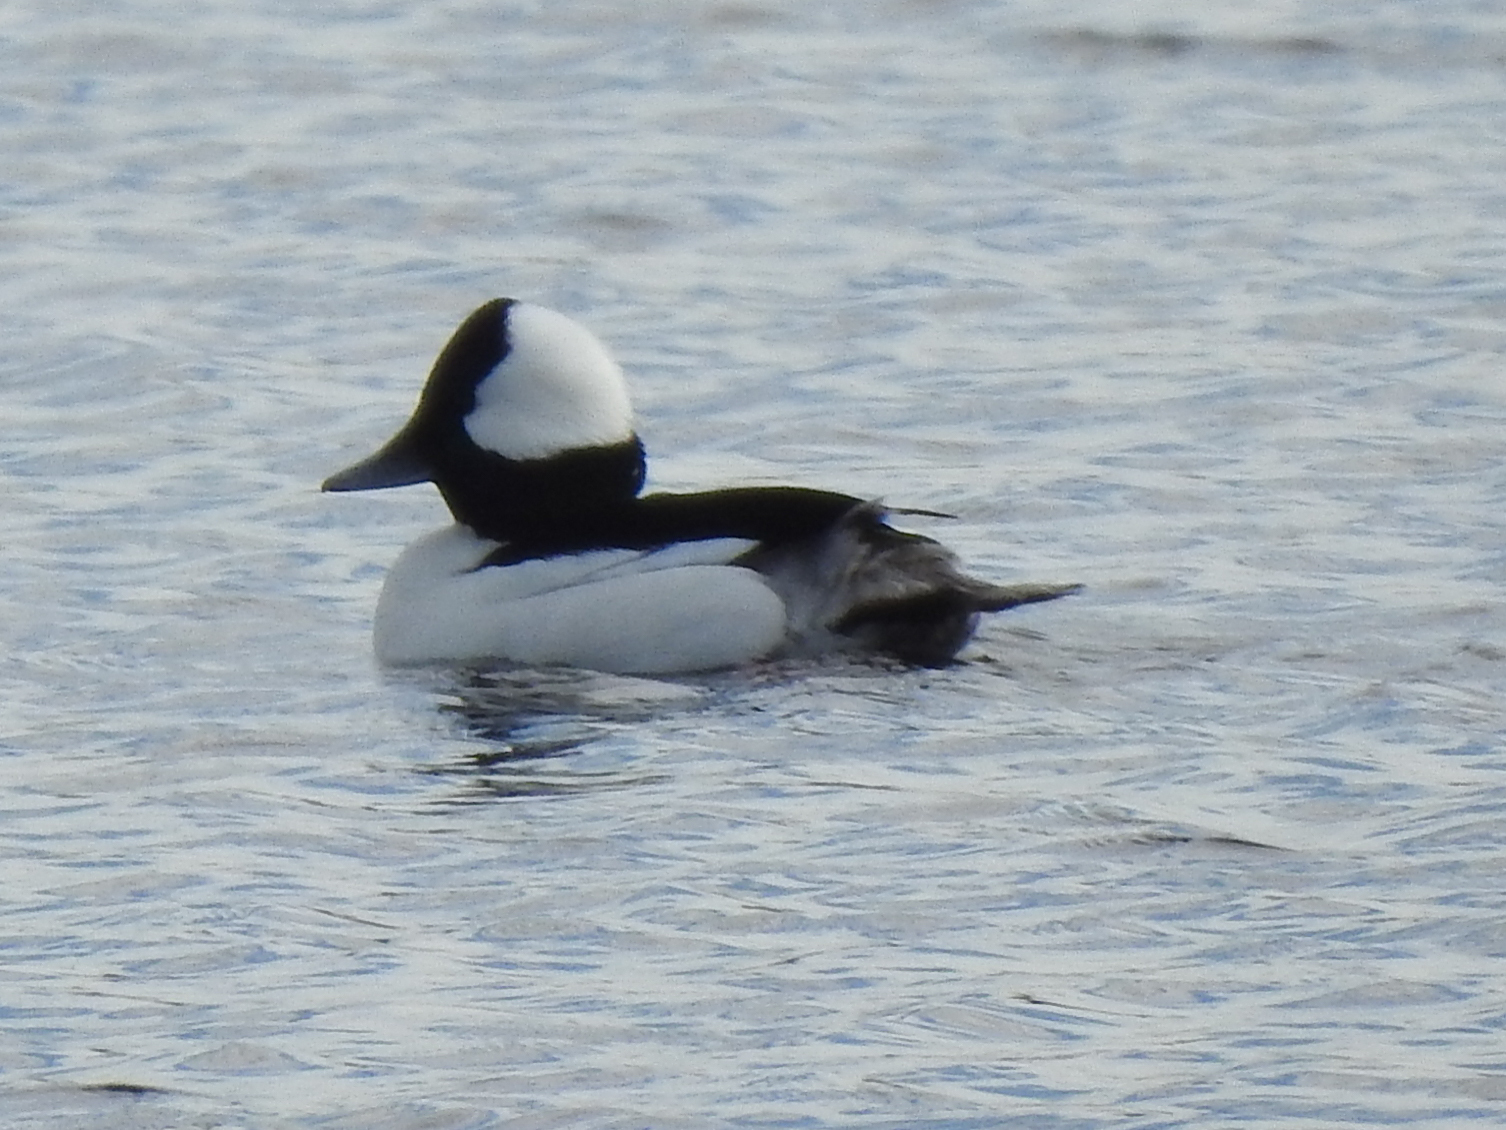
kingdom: Animalia
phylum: Chordata
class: Aves
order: Anseriformes
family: Anatidae
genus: Bucephala
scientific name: Bucephala albeola
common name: Bufflehead
